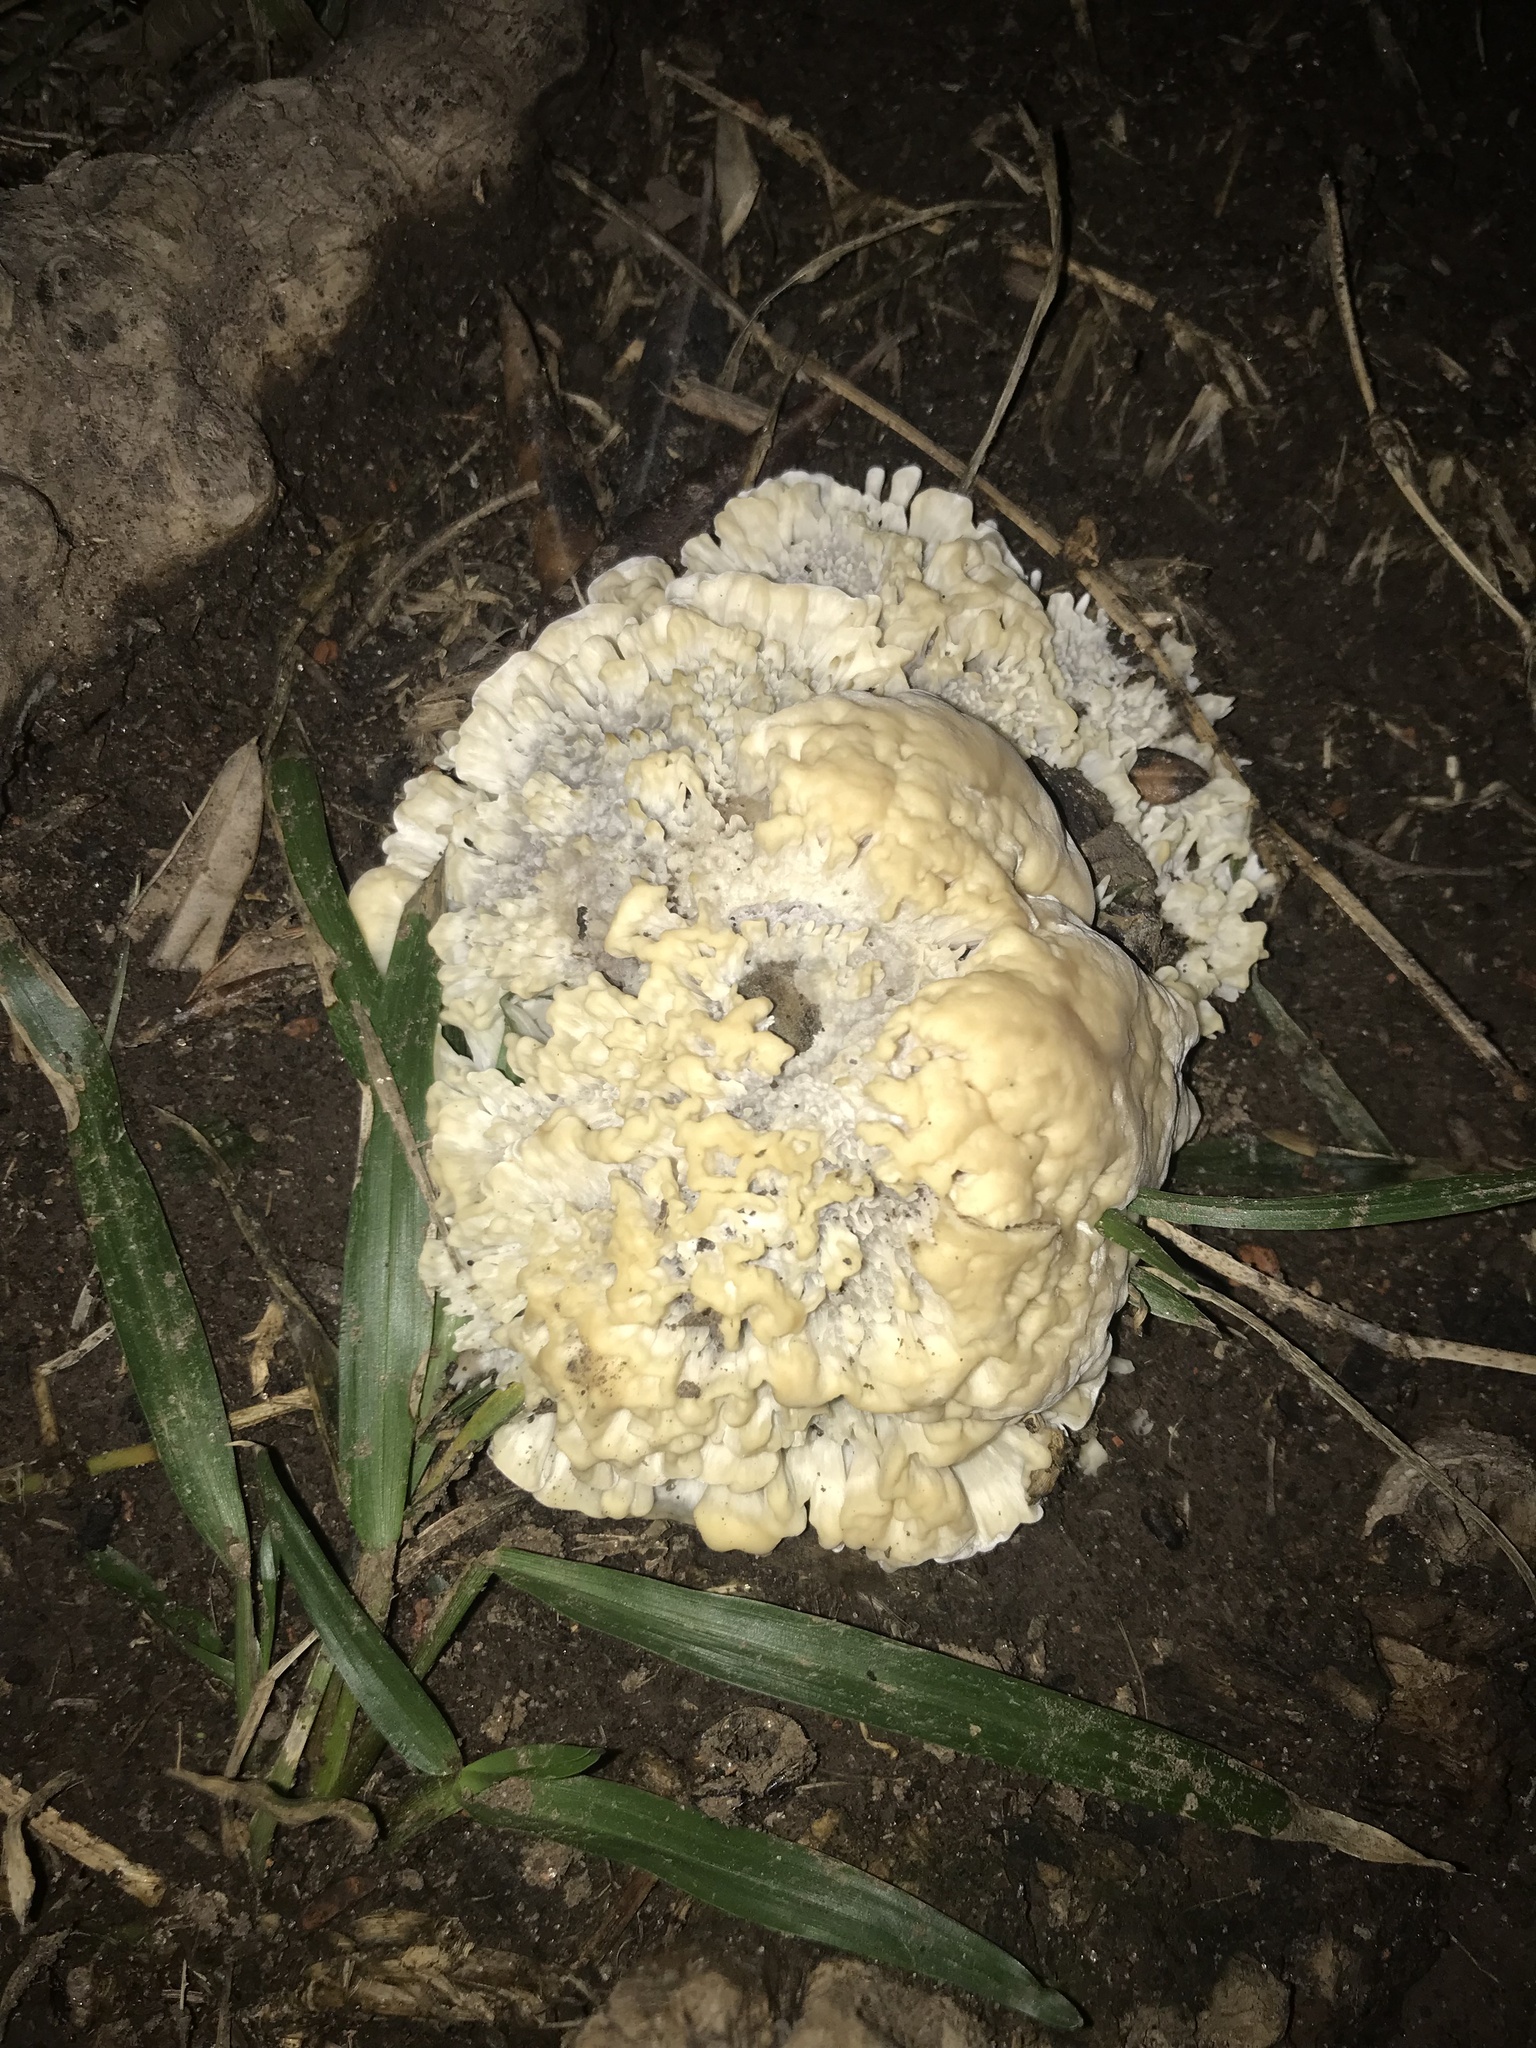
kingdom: Fungi
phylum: Basidiomycota
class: Agaricomycetes
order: Polyporales
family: Irpicaceae
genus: Irpex
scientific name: Irpex rosettiformis
